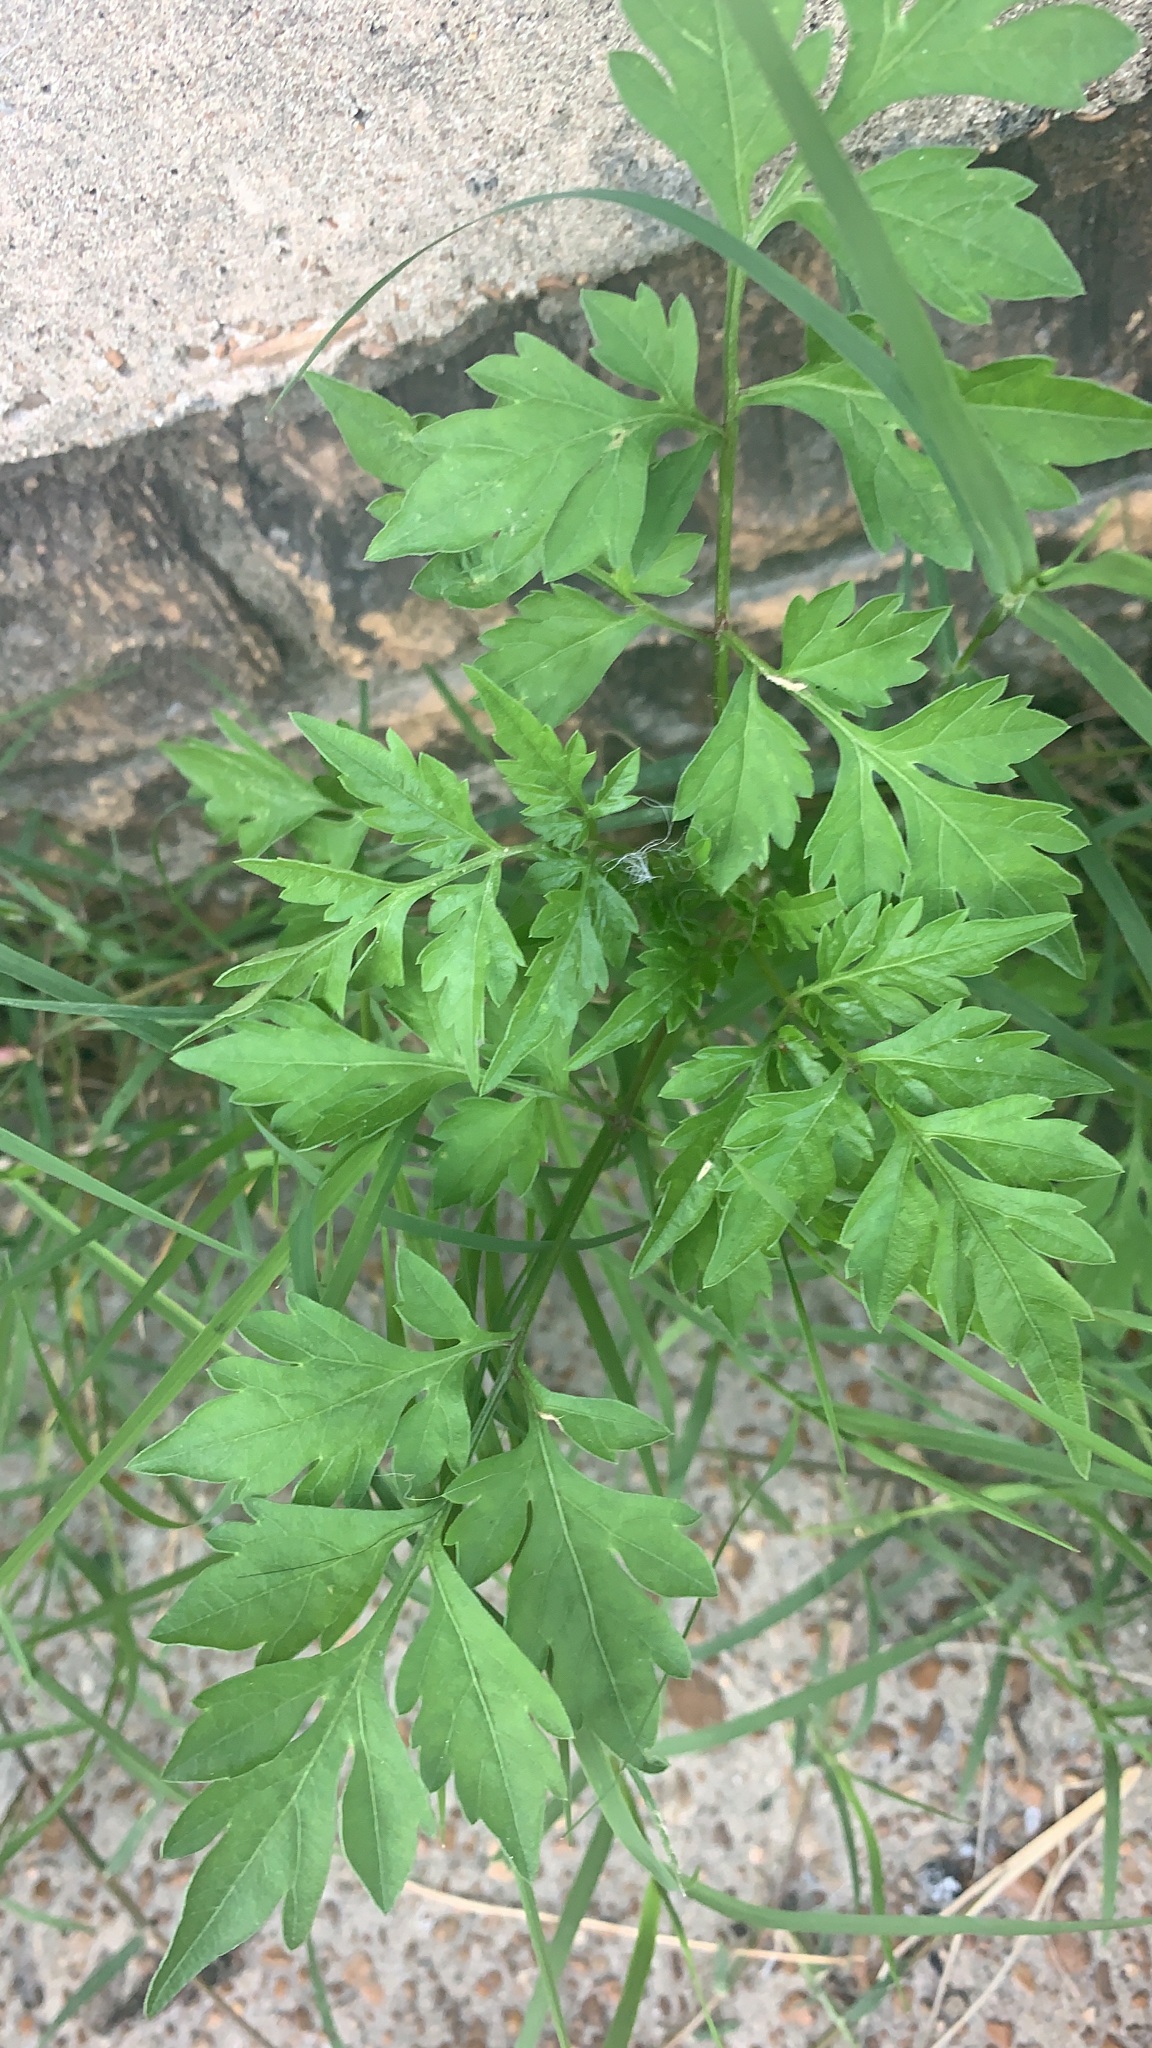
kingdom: Plantae
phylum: Tracheophyta
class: Magnoliopsida
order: Asterales
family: Asteraceae
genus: Bidens
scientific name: Bidens bipinnata
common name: Spanish-needles
